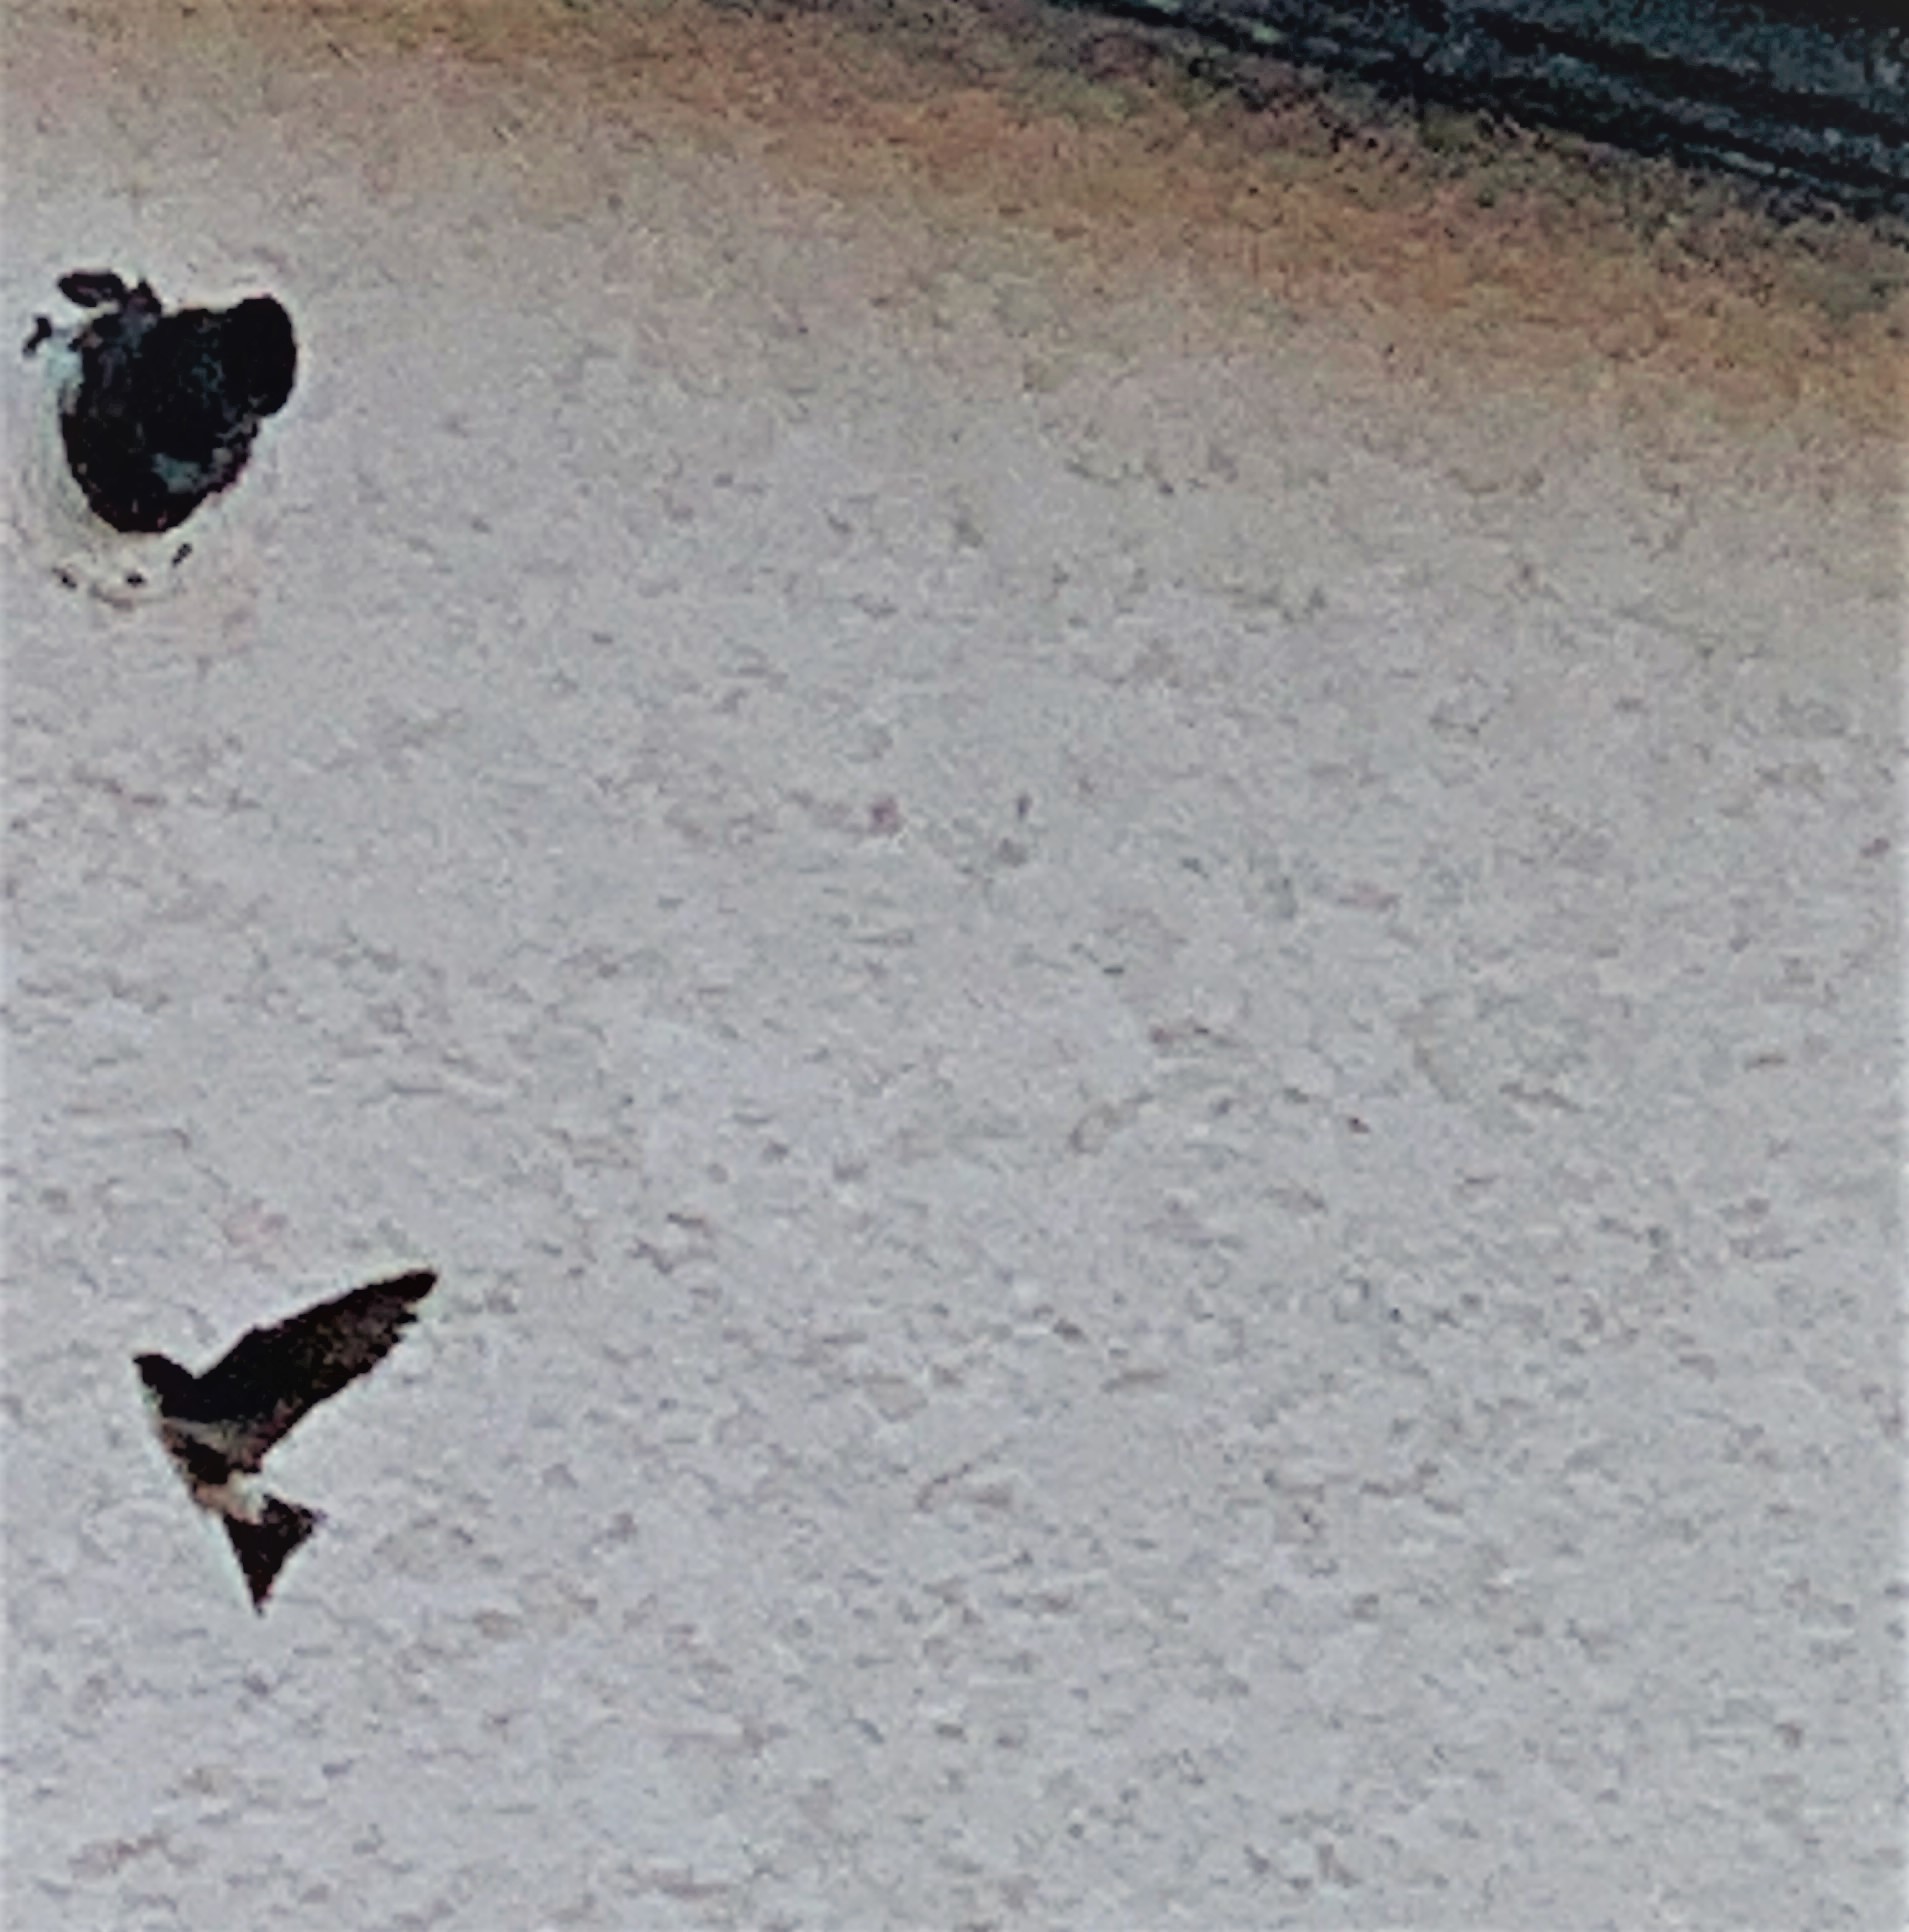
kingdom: Animalia
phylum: Chordata
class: Aves
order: Passeriformes
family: Hirundinidae
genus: Delichon
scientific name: Delichon urbicum
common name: Common house martin
